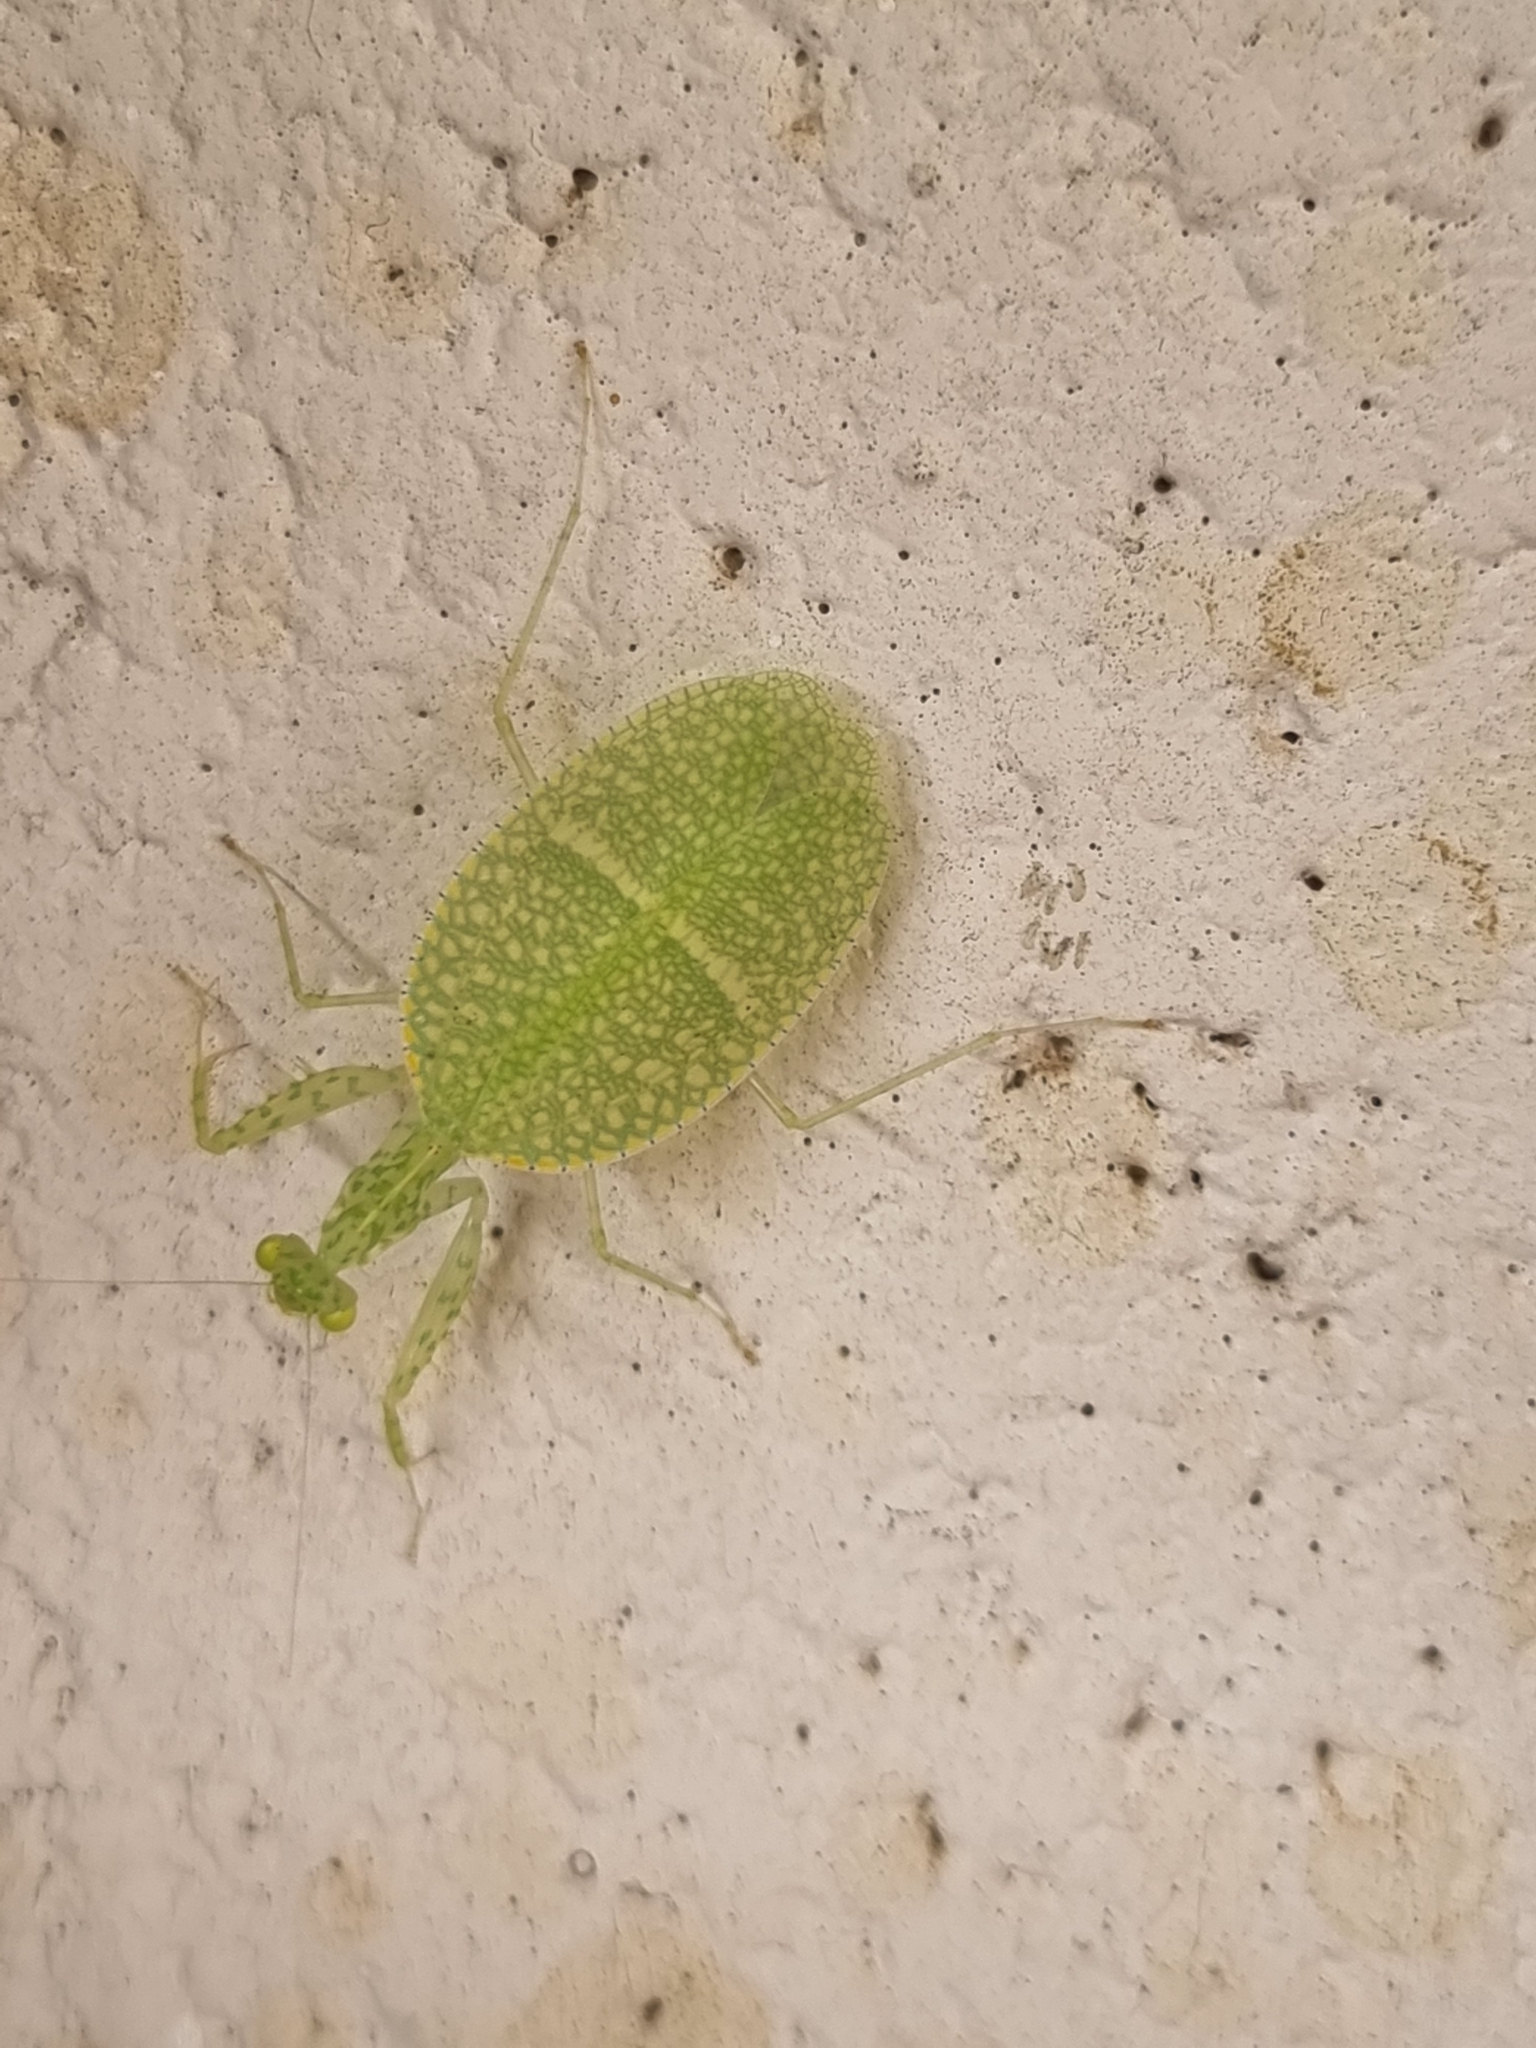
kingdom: Animalia
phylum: Arthropoda
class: Insecta
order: Mantodea
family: Nanomantidae
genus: Neomantis
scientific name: Neomantis australis
